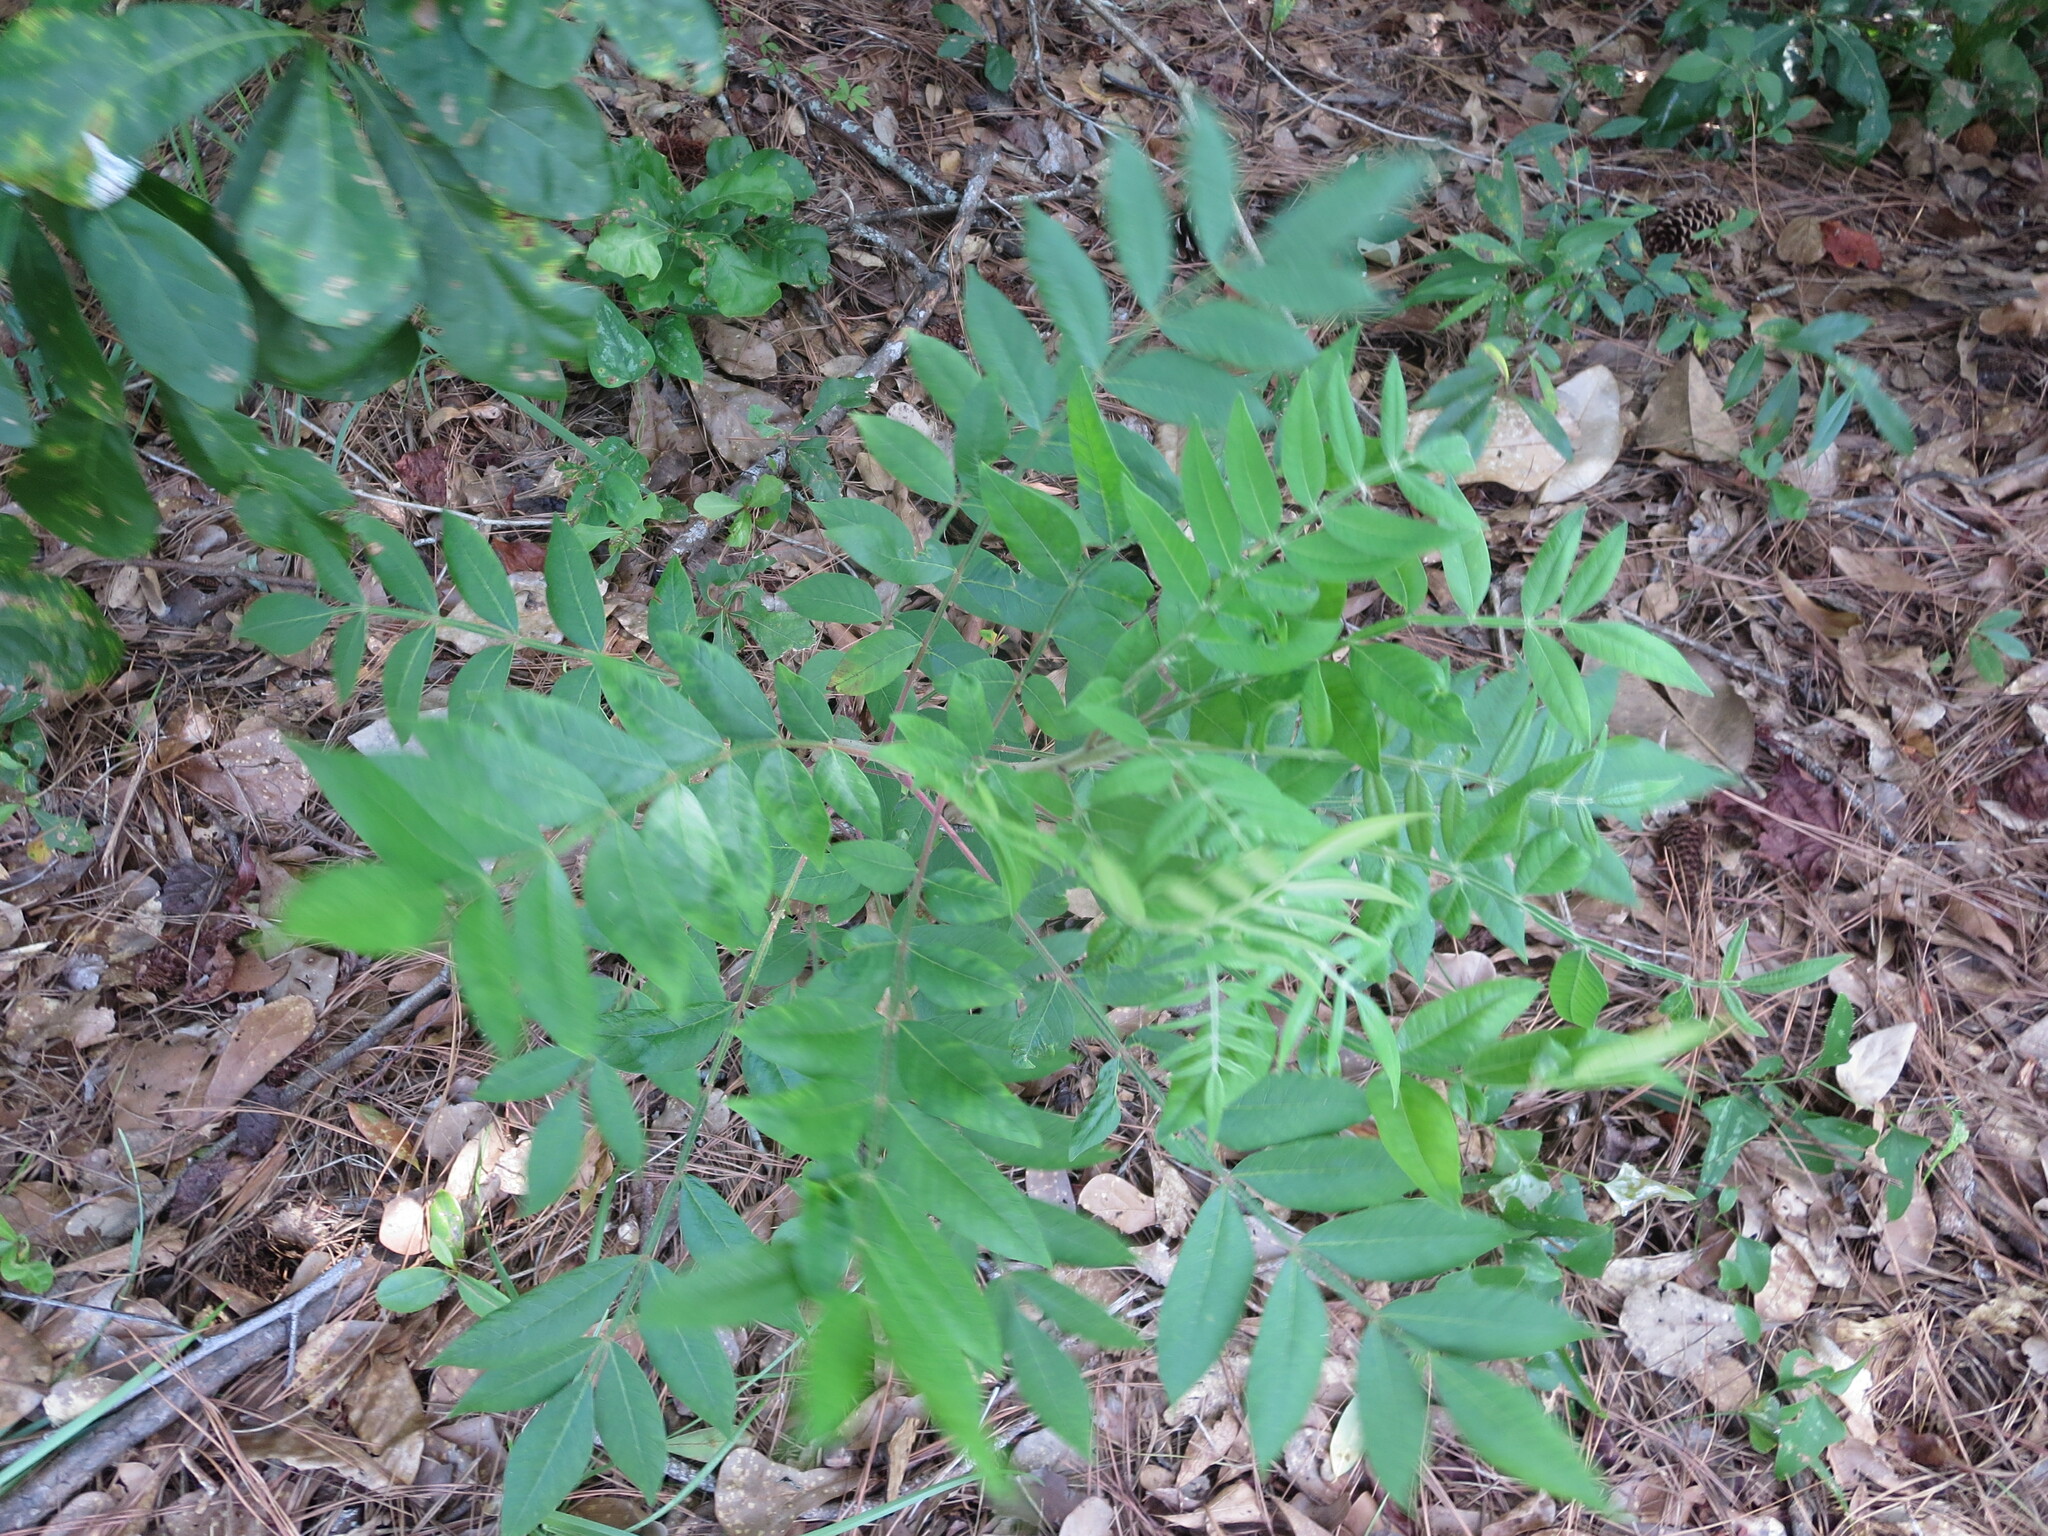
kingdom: Plantae
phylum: Tracheophyta
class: Magnoliopsida
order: Sapindales
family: Anacardiaceae
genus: Rhus
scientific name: Rhus copallina
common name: Shining sumac
